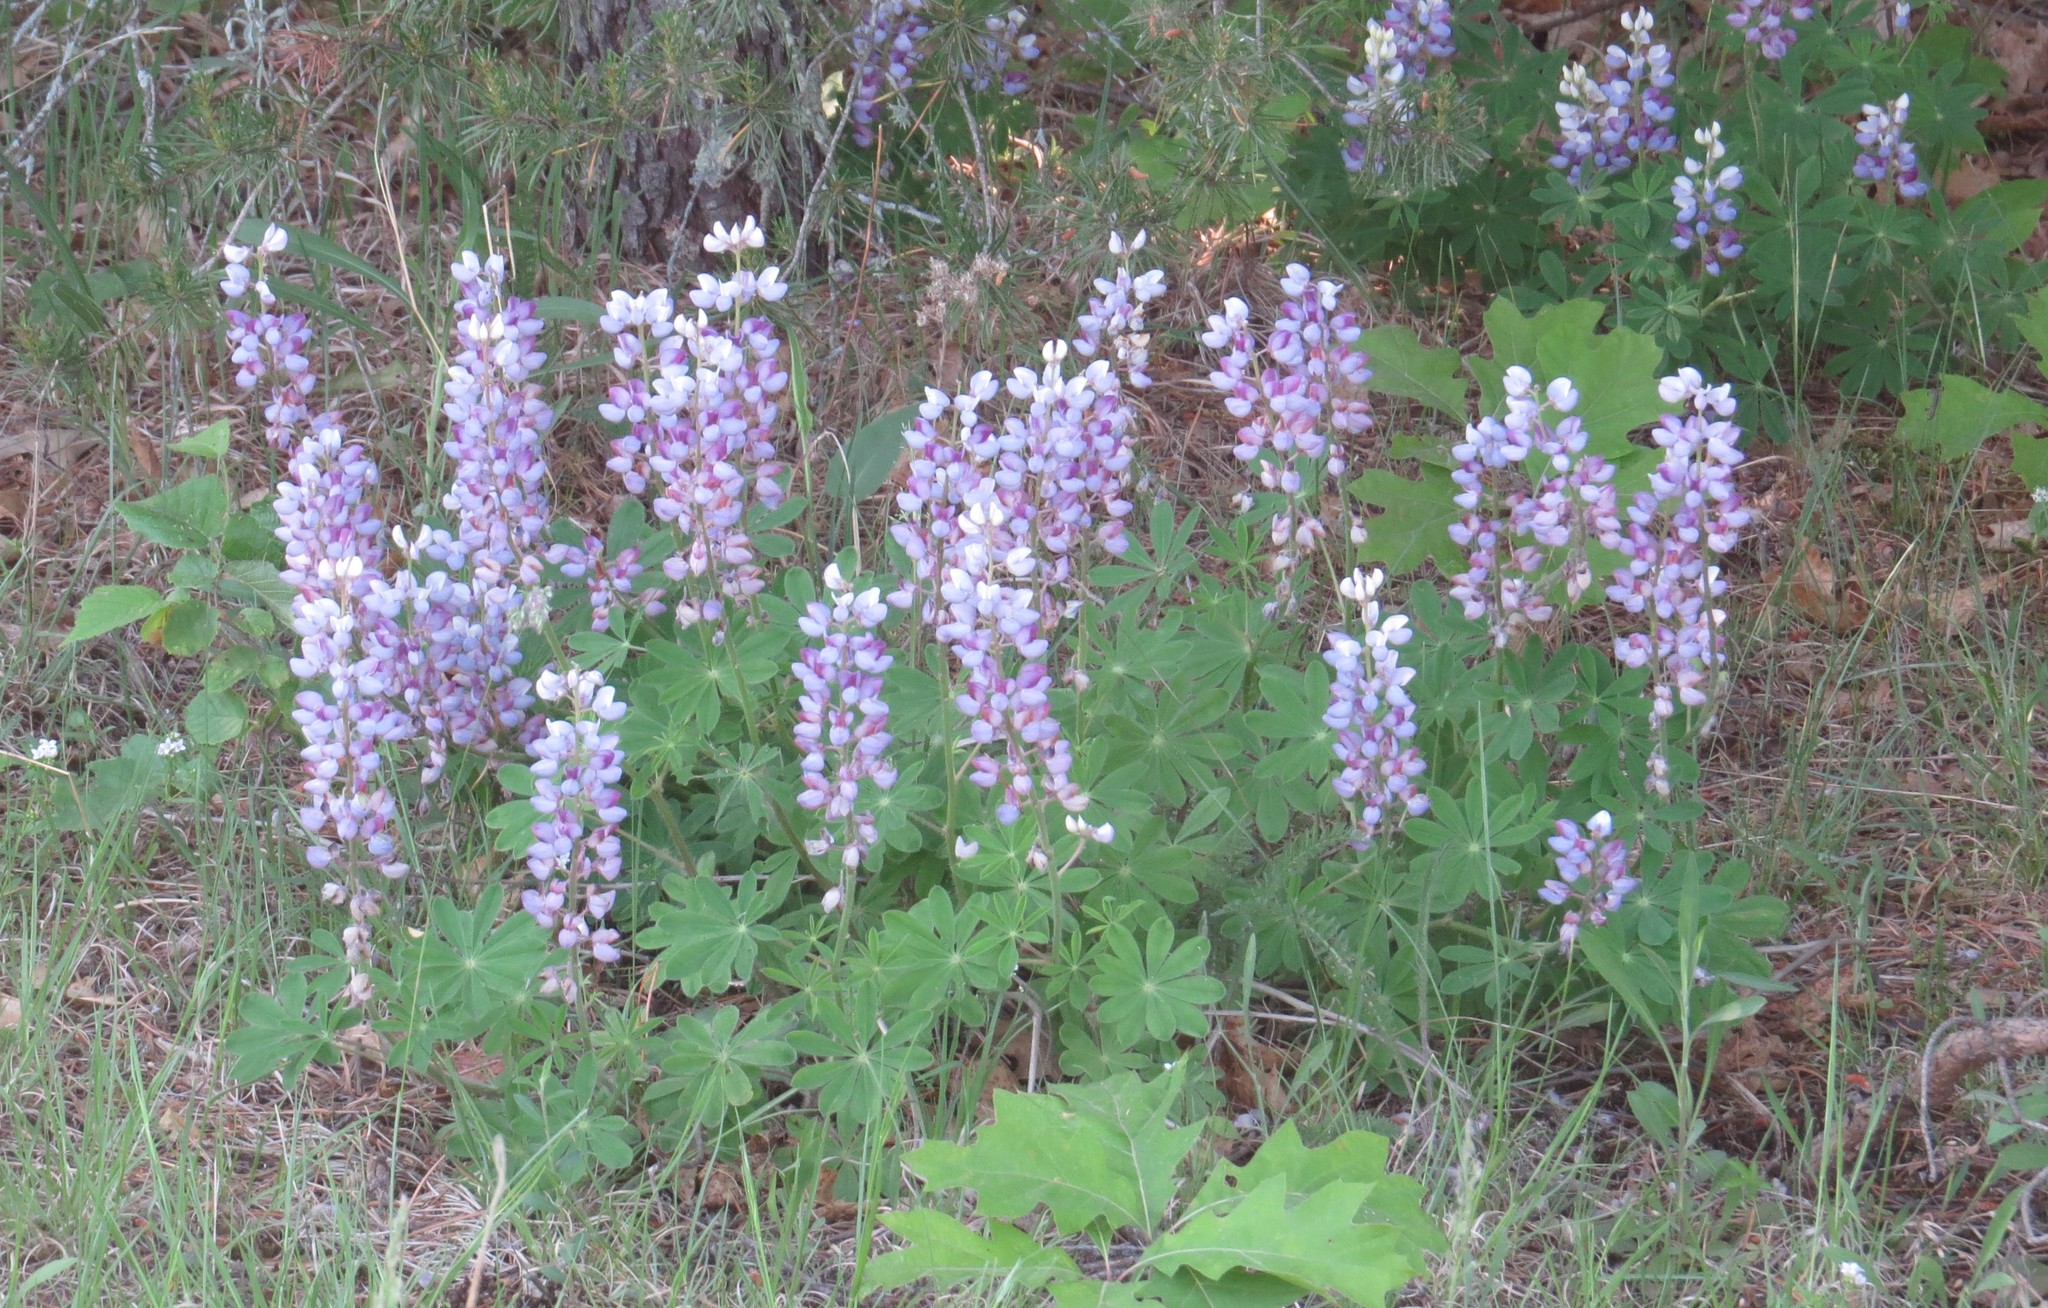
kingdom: Plantae
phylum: Tracheophyta
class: Magnoliopsida
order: Fabales
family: Fabaceae
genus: Lupinus
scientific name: Lupinus perennis
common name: Sundial lupine
